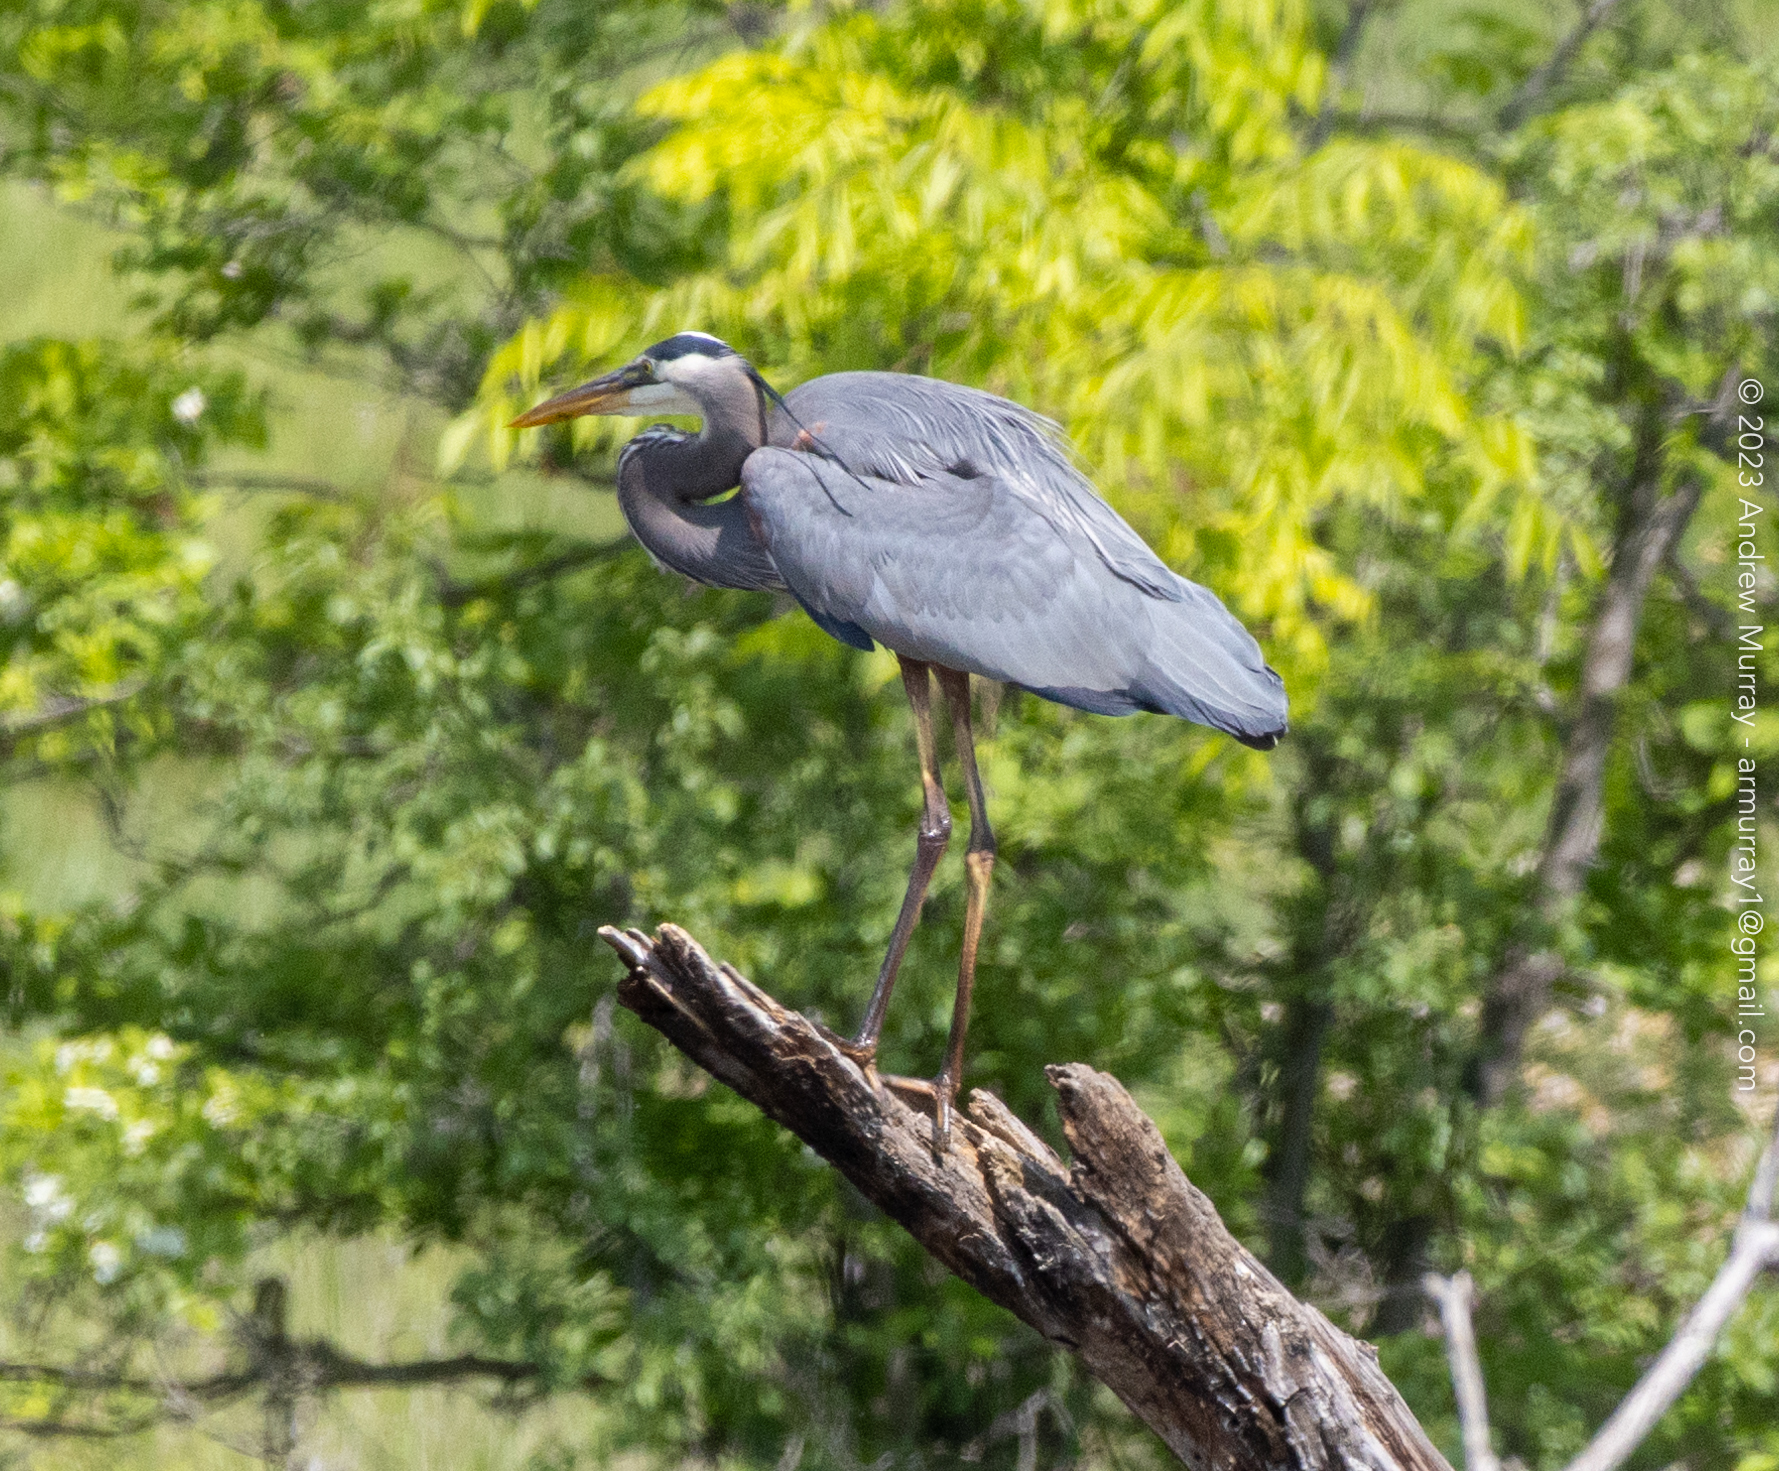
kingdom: Animalia
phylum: Chordata
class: Aves
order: Pelecaniformes
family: Ardeidae
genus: Ardea
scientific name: Ardea herodias
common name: Great blue heron
